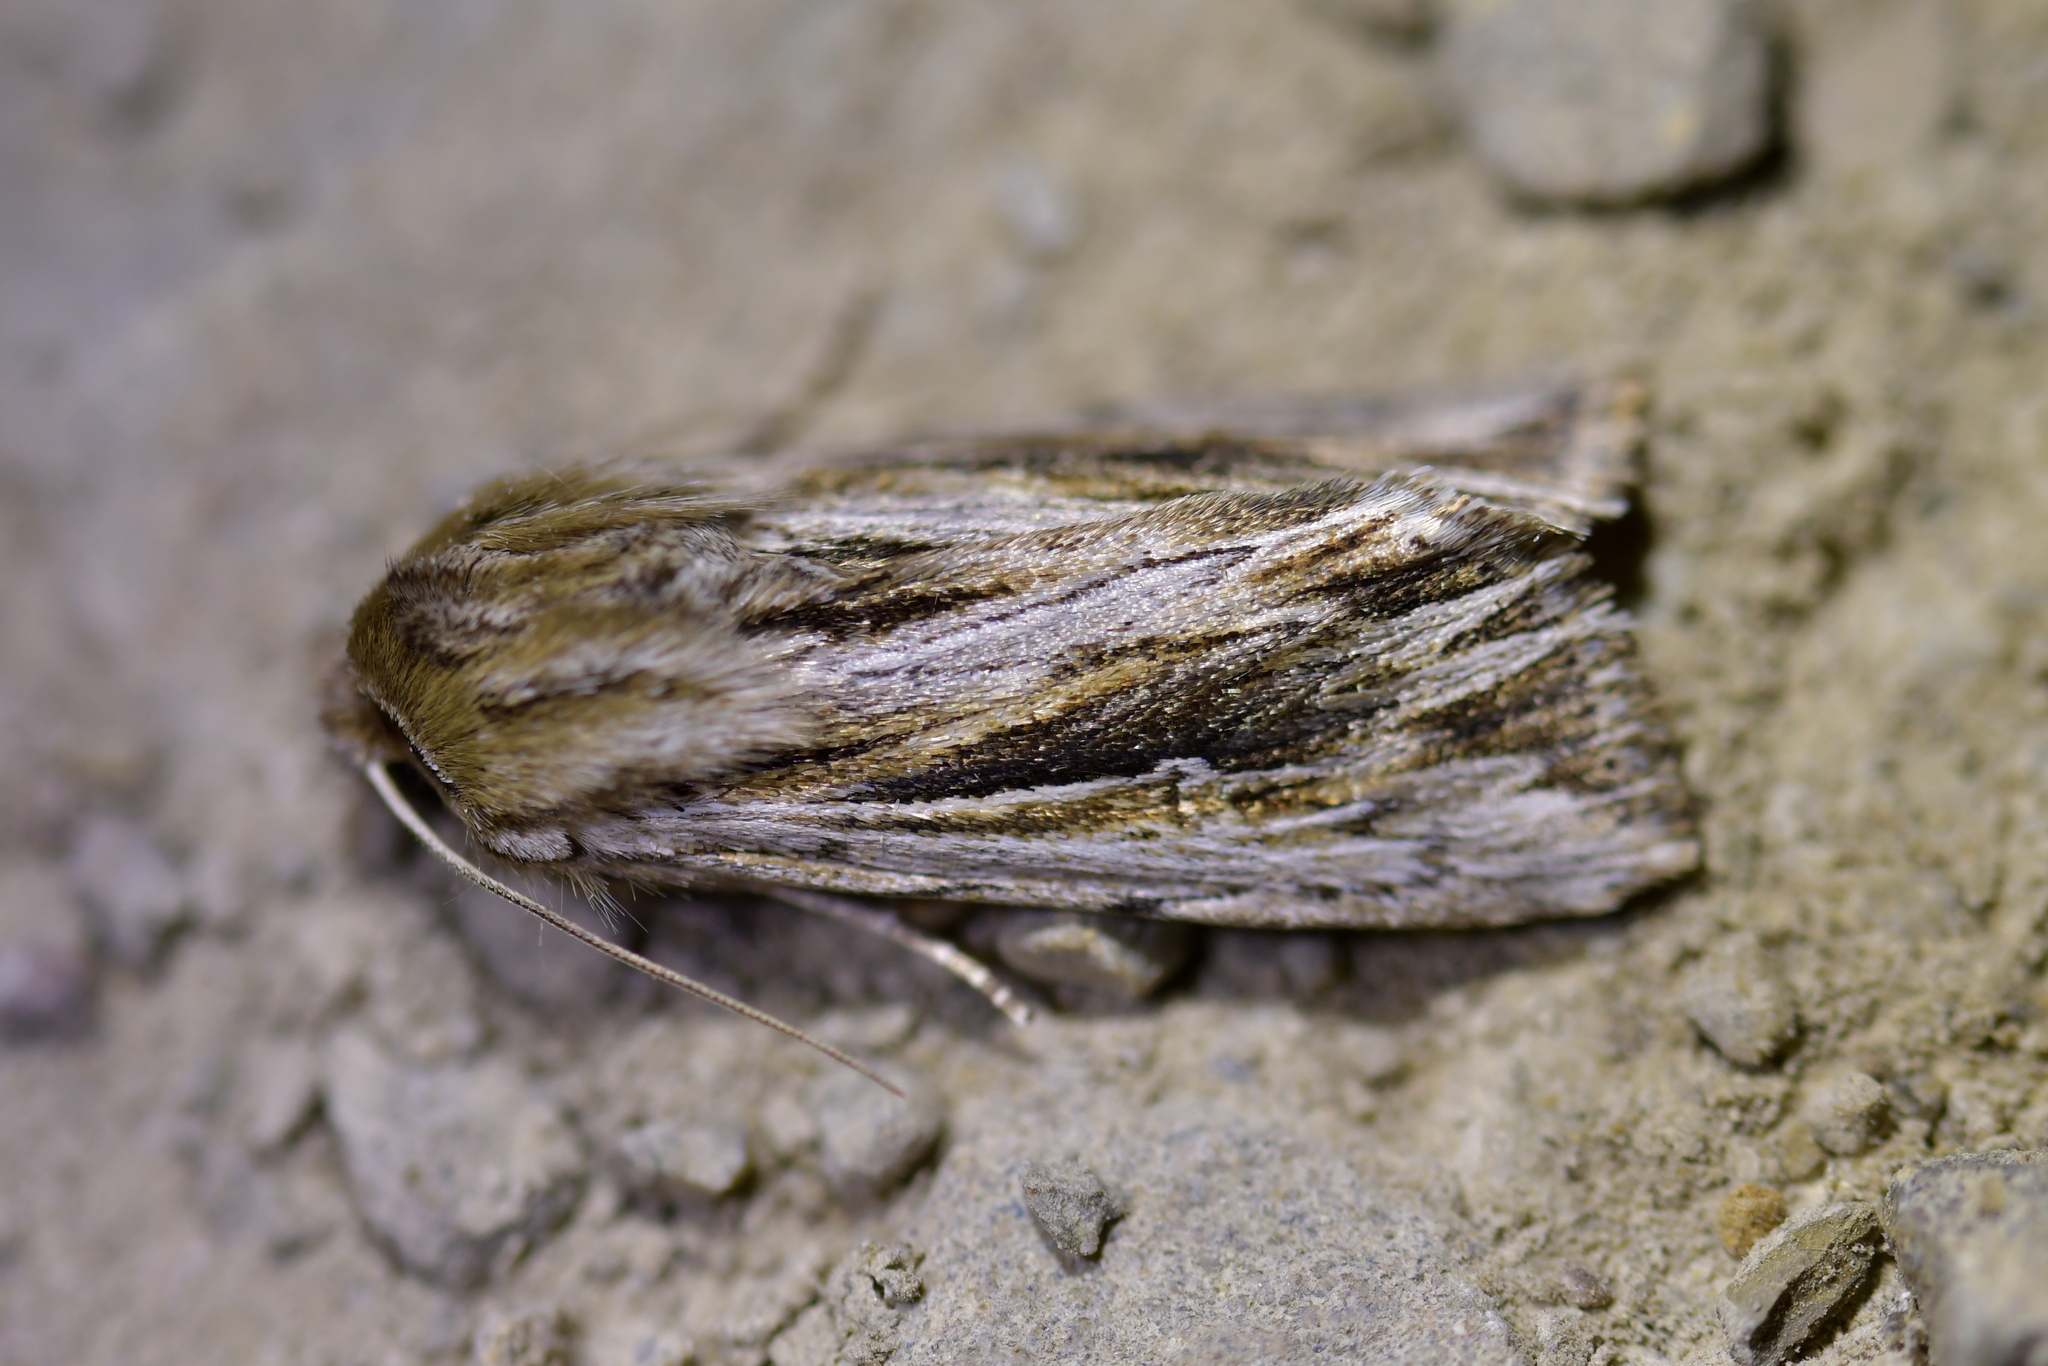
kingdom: Animalia
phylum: Arthropoda
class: Insecta
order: Lepidoptera
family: Noctuidae
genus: Persectania
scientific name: Persectania aversa
